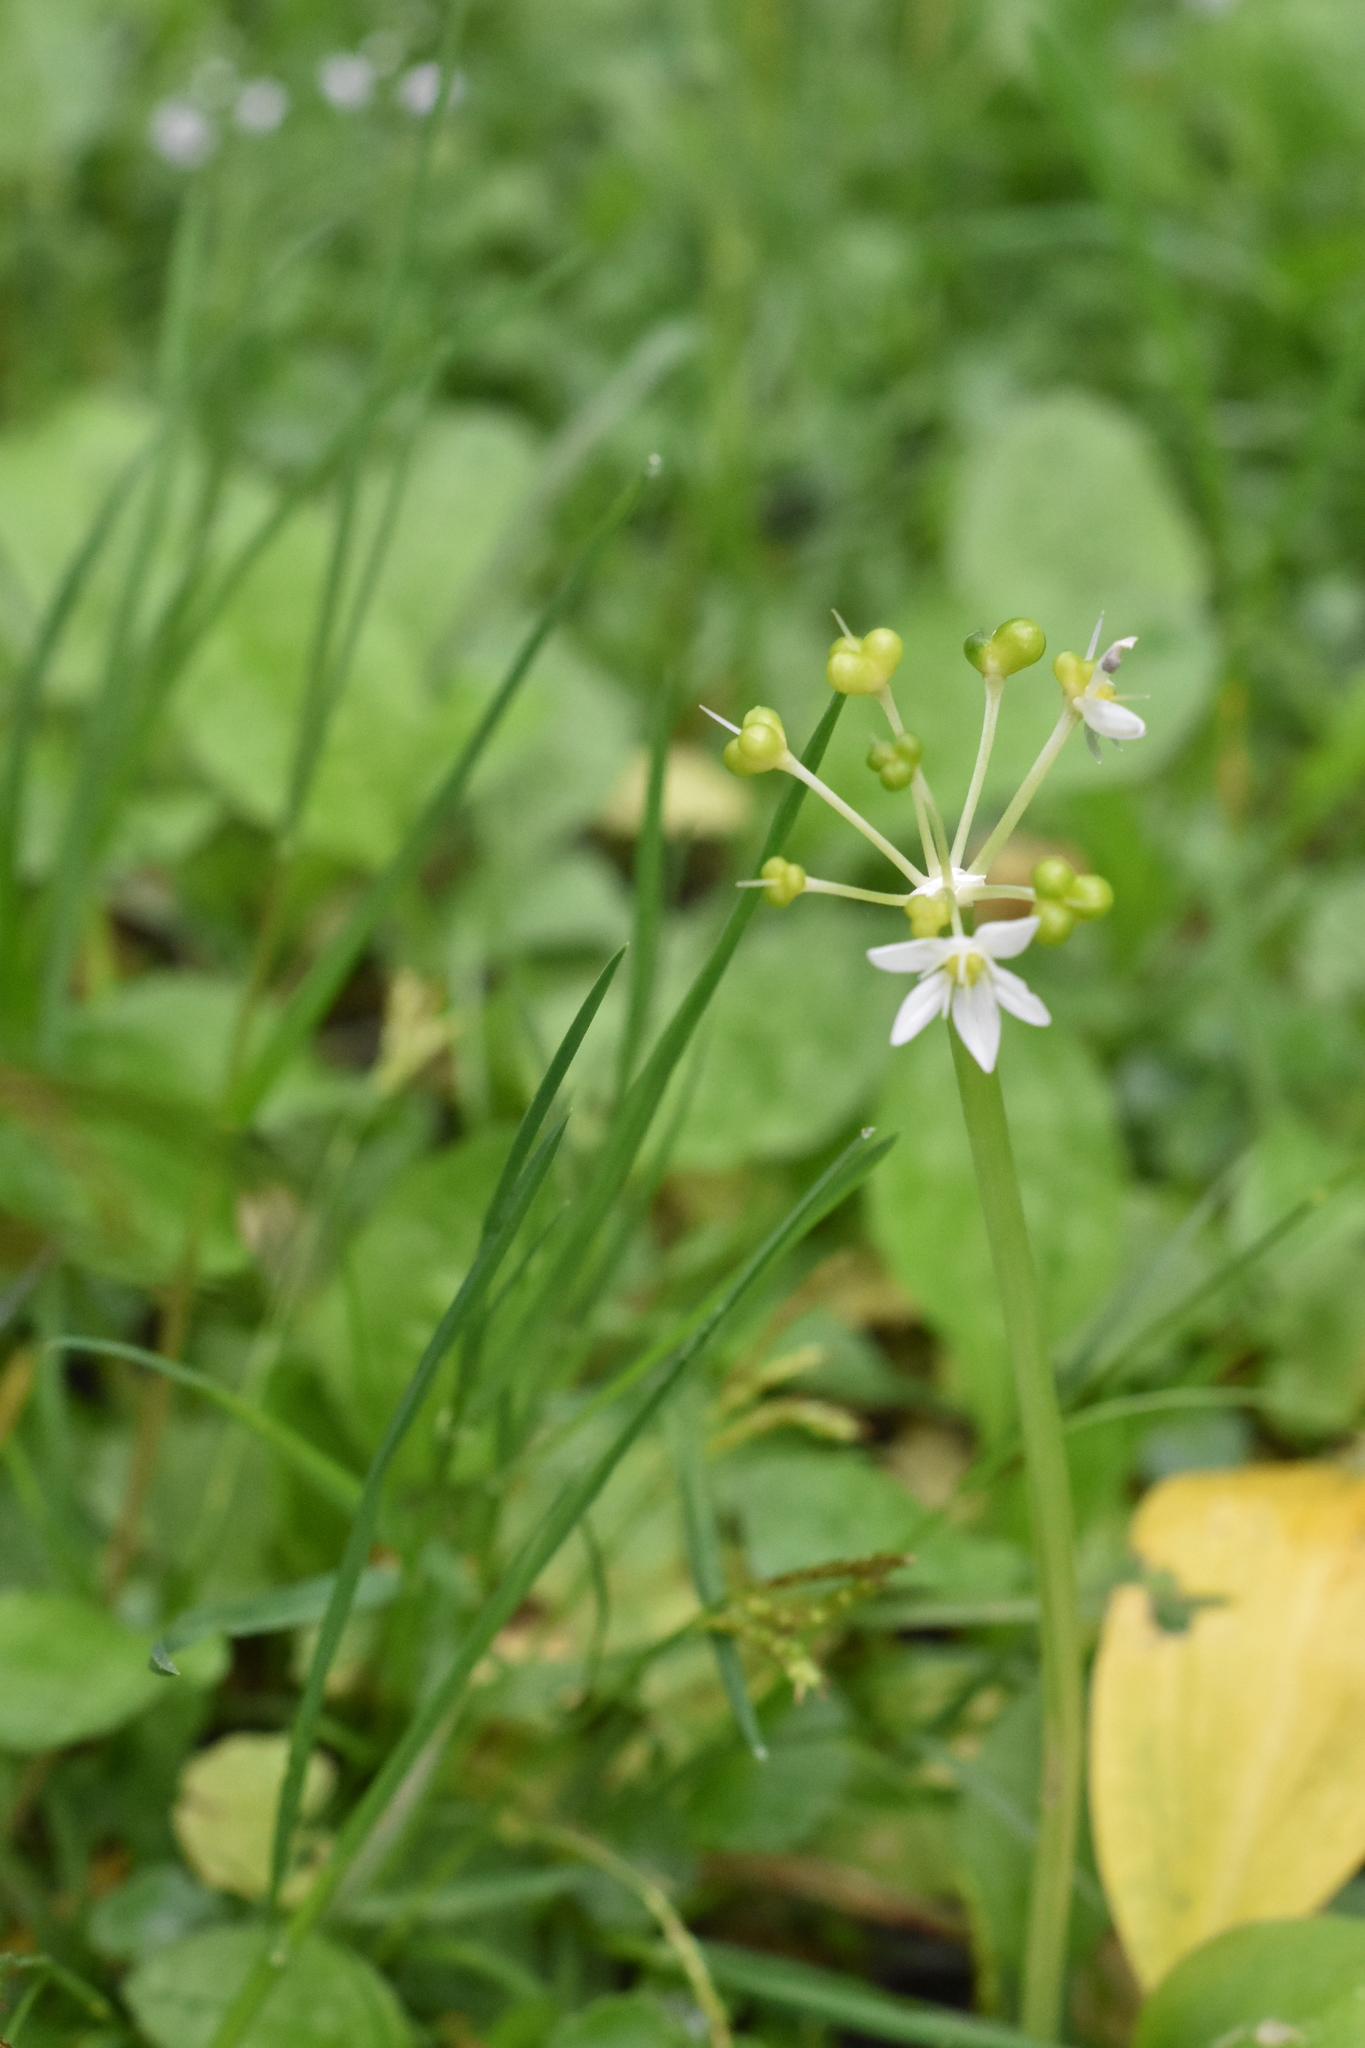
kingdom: Plantae
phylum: Tracheophyta
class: Liliopsida
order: Asparagales
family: Amaryllidaceae
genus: Allium
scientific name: Allium ursinum
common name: Ramsons
